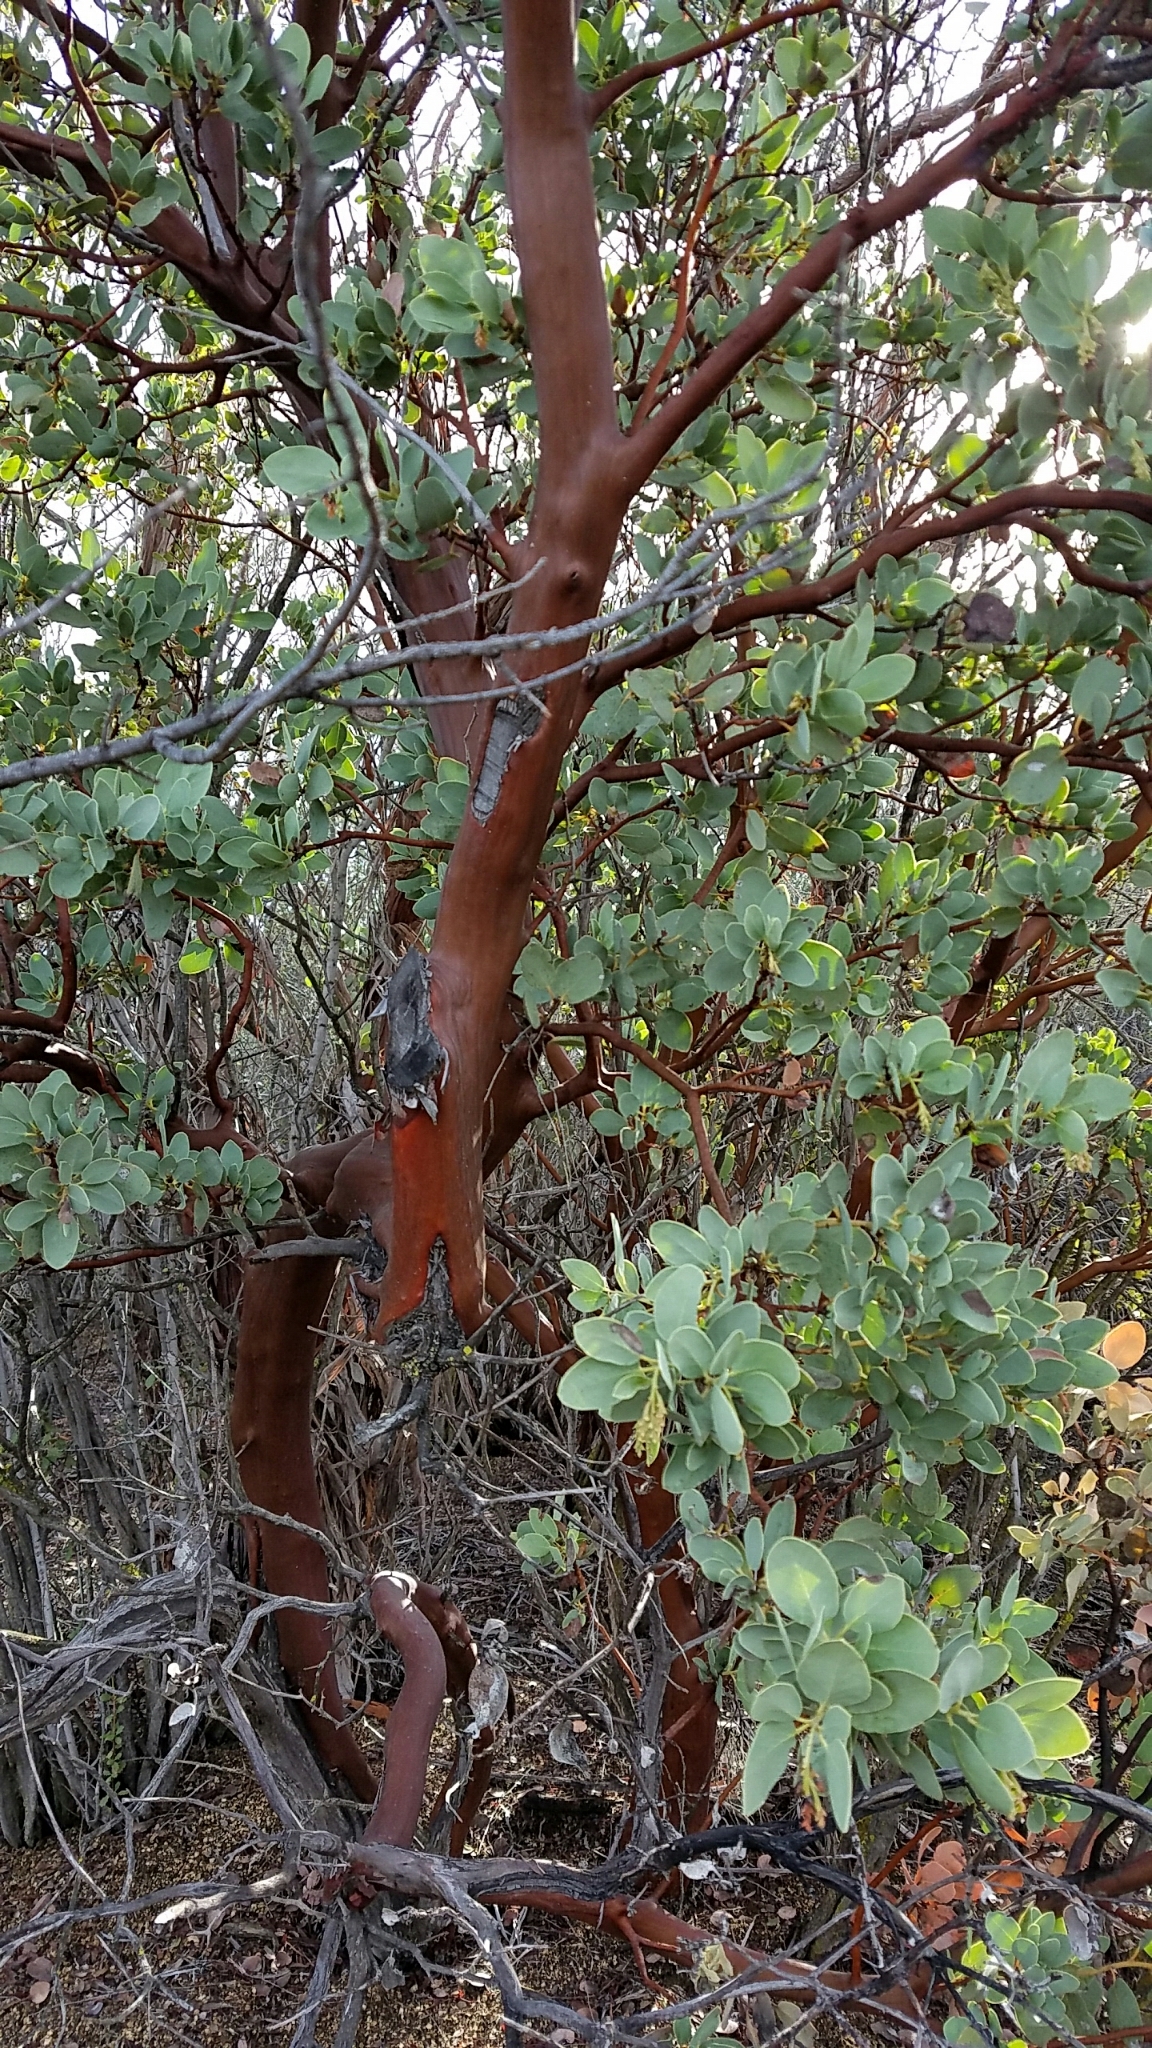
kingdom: Plantae
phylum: Tracheophyta
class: Magnoliopsida
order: Ericales
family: Ericaceae
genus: Arctostaphylos
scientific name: Arctostaphylos glauca
